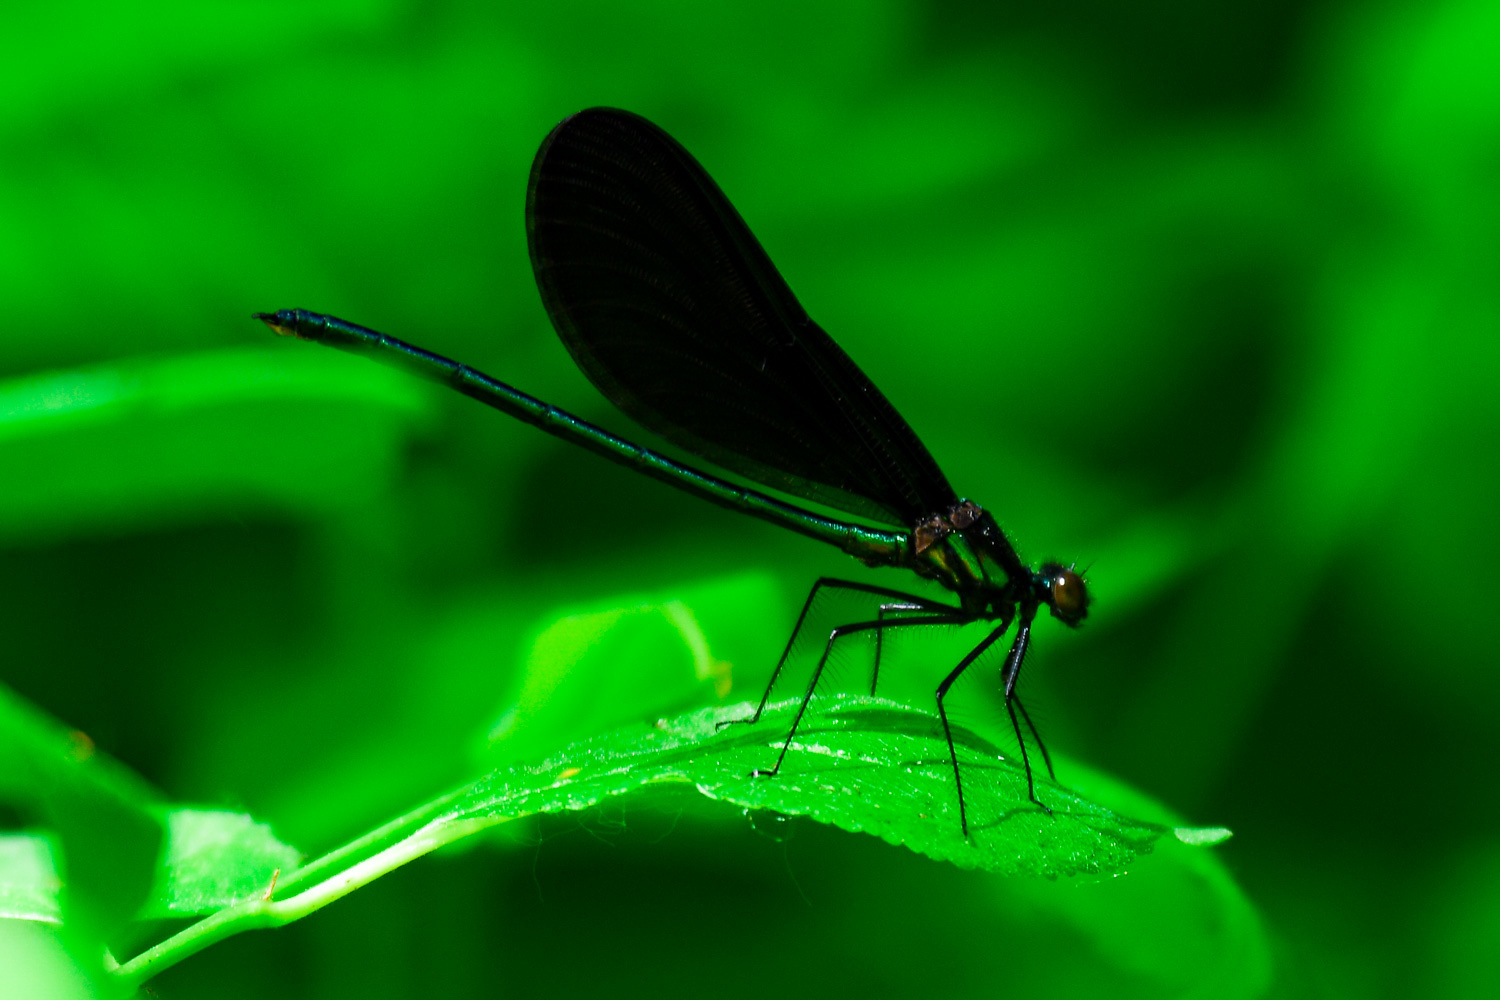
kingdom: Animalia
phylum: Arthropoda
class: Insecta
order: Odonata
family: Calopterygidae
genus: Calopteryx
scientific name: Calopteryx maculata
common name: Ebony jewelwing
